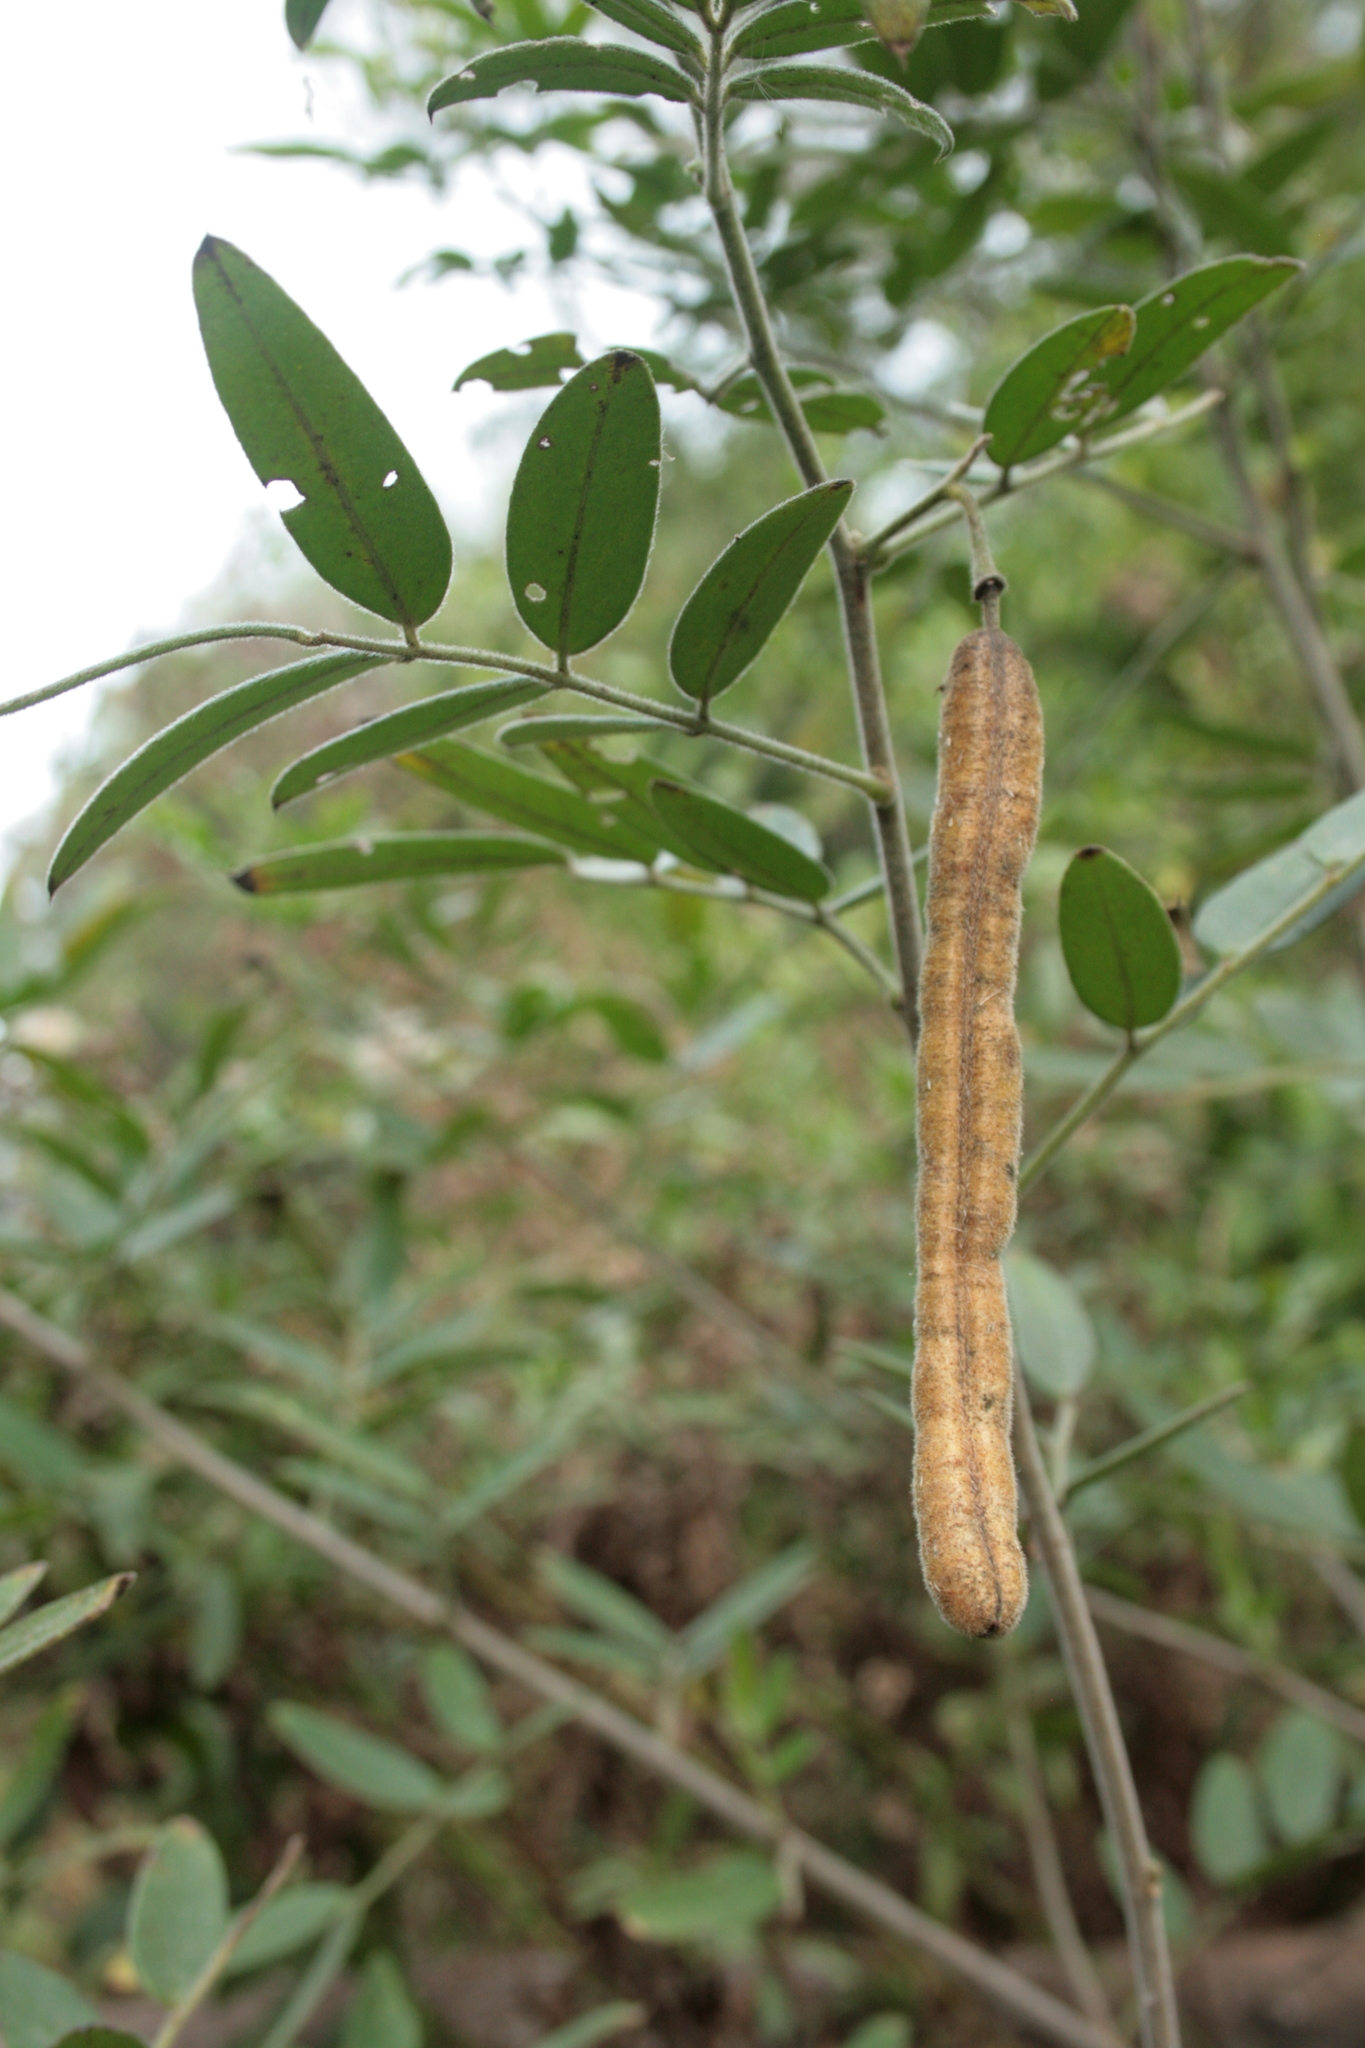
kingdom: Plantae
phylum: Tracheophyta
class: Magnoliopsida
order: Fabales
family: Fabaceae
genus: Senna
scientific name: Senna morongii
